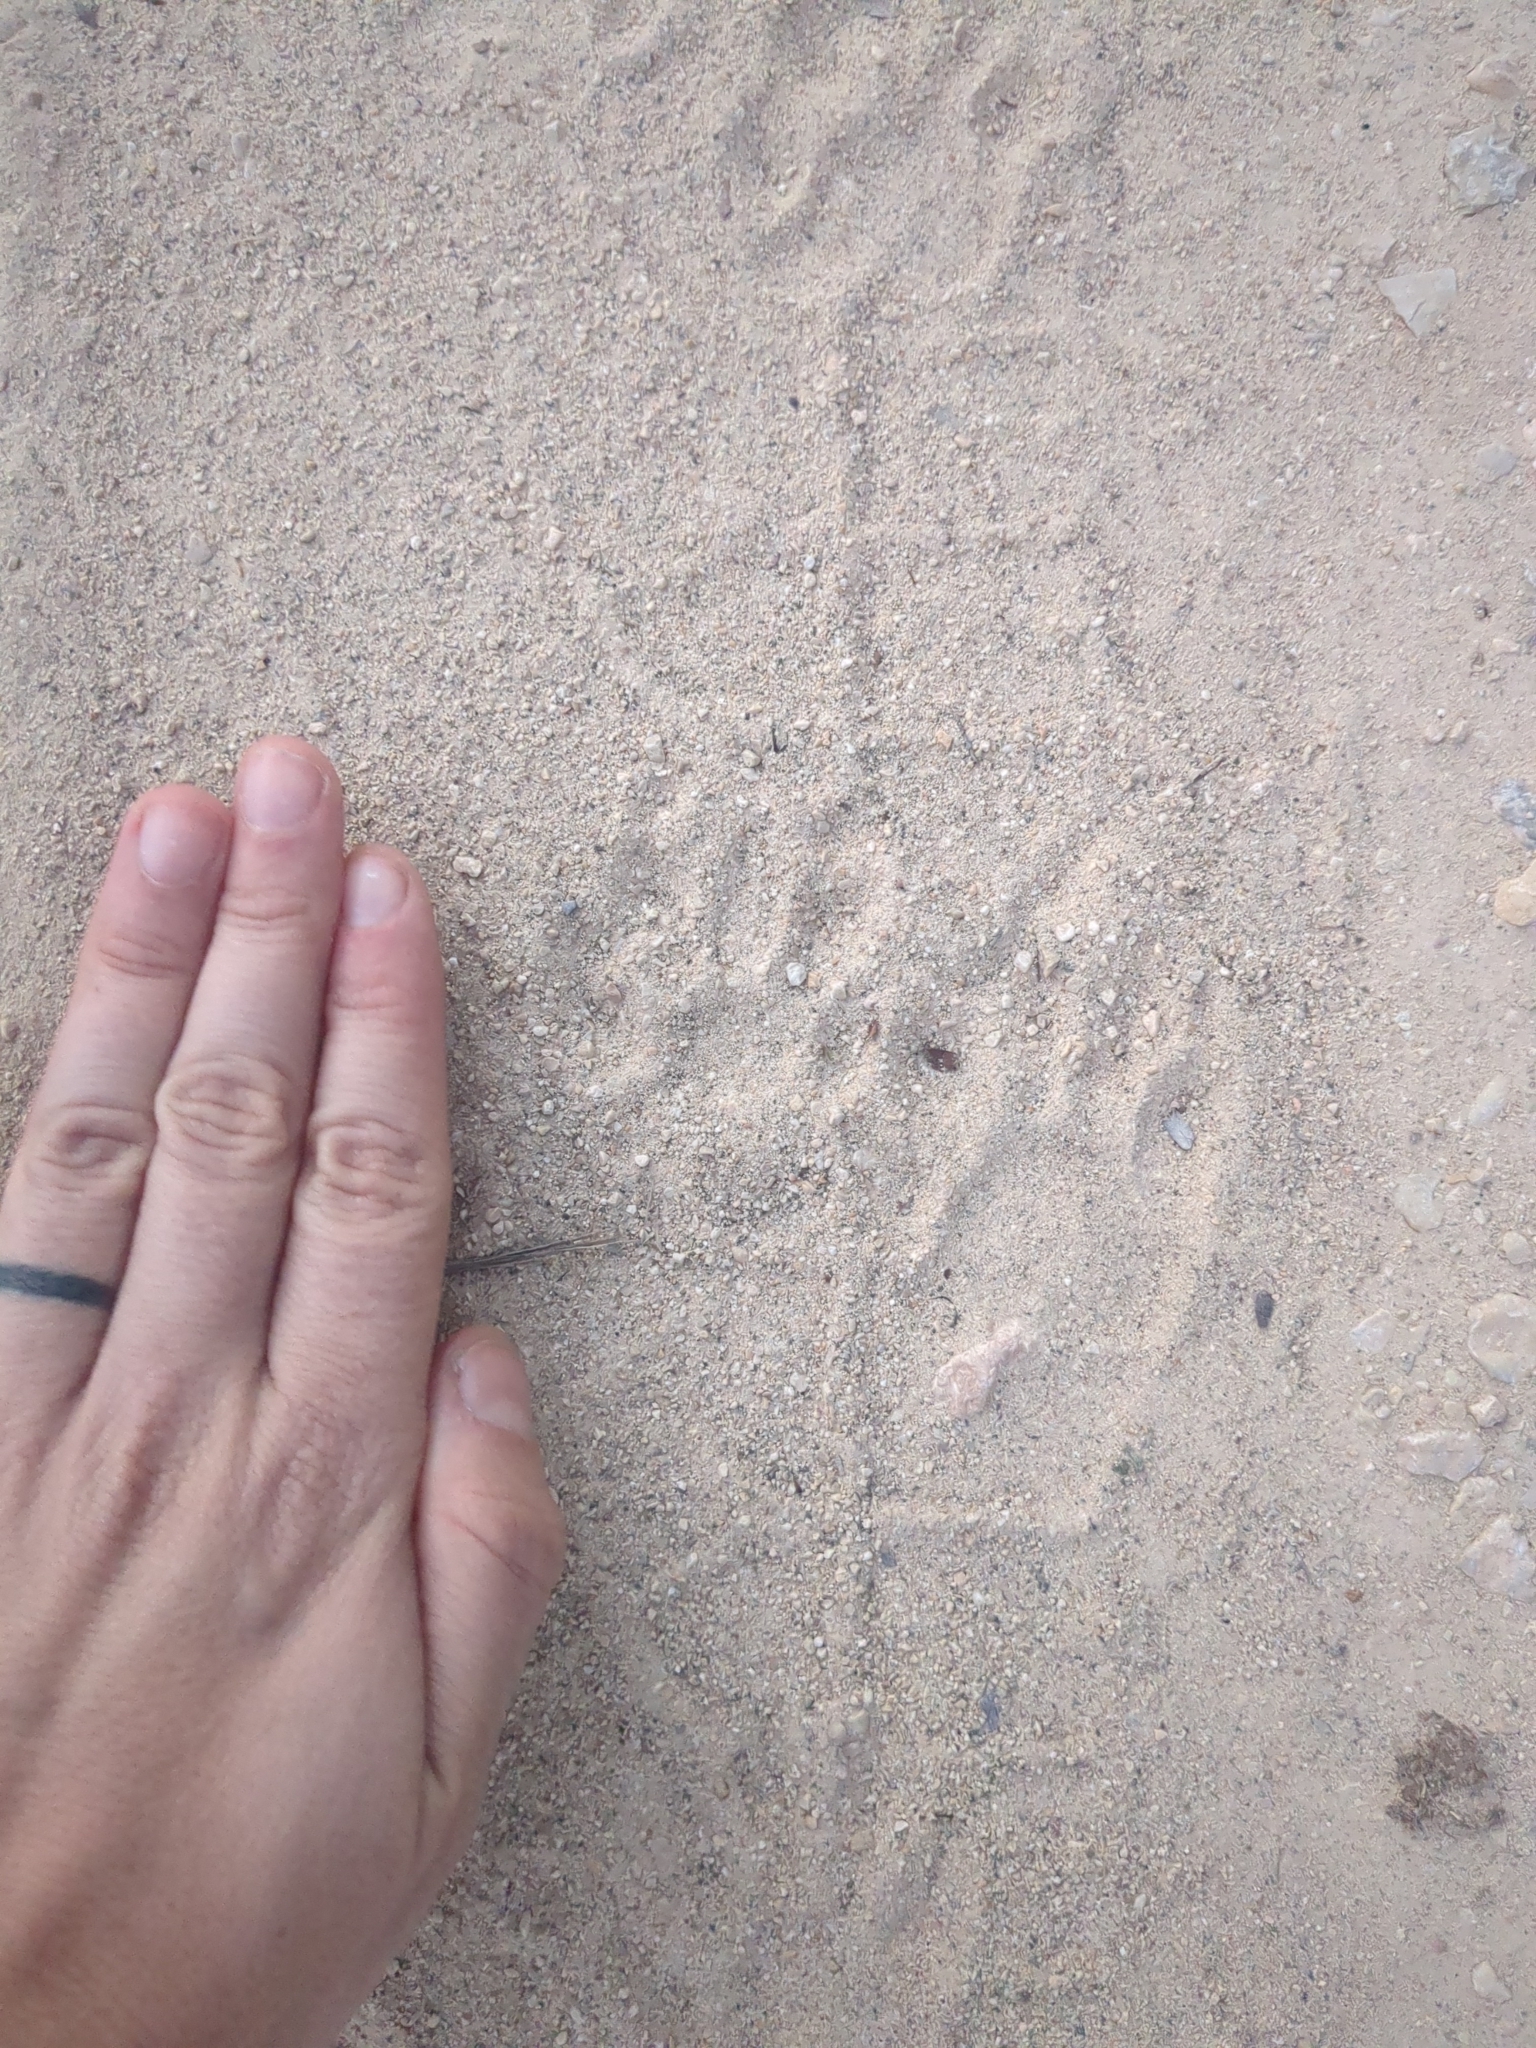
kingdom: Animalia
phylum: Chordata
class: Mammalia
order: Carnivora
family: Procyonidae
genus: Procyon
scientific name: Procyon lotor
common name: Raccoon
